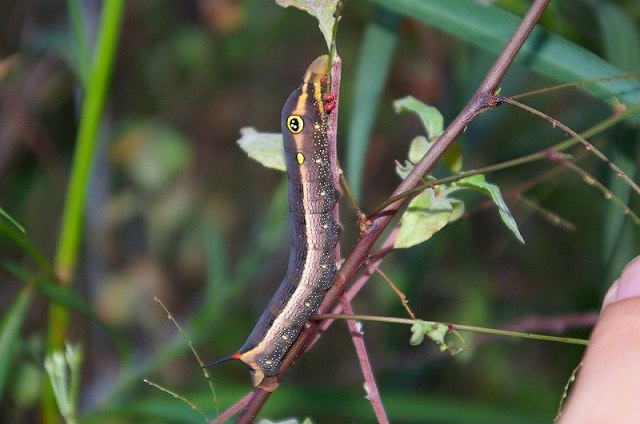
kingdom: Animalia
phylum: Arthropoda
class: Insecta
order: Lepidoptera
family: Sphingidae
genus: Hippotion
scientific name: Hippotion celerio
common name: Silver-striped hawk-moth
